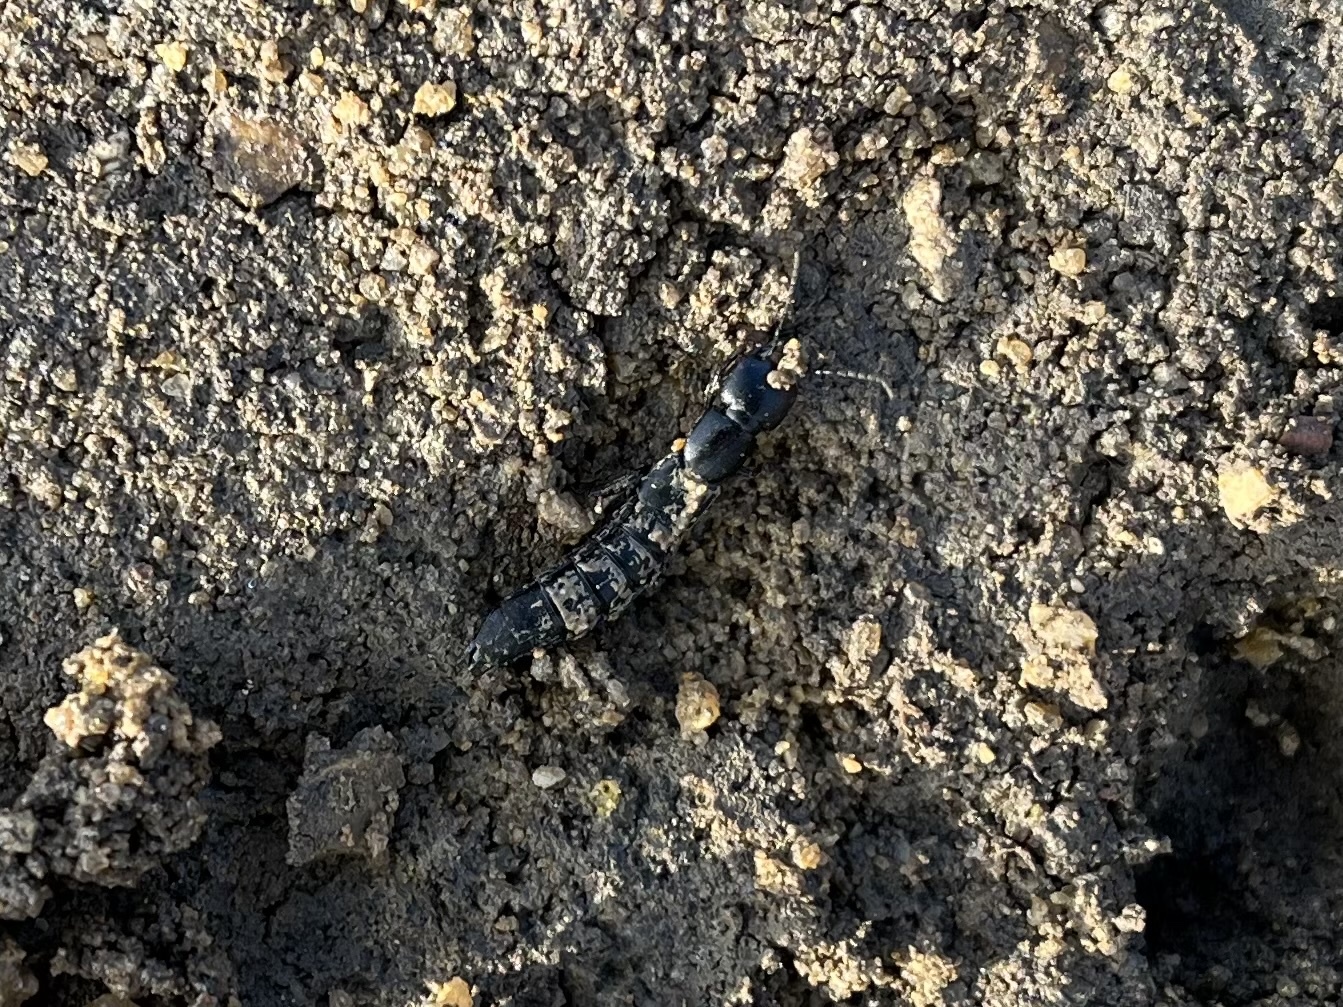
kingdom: Animalia
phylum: Arthropoda
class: Insecta
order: Coleoptera
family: Staphylinidae
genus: Ocypus
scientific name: Ocypus nitens
